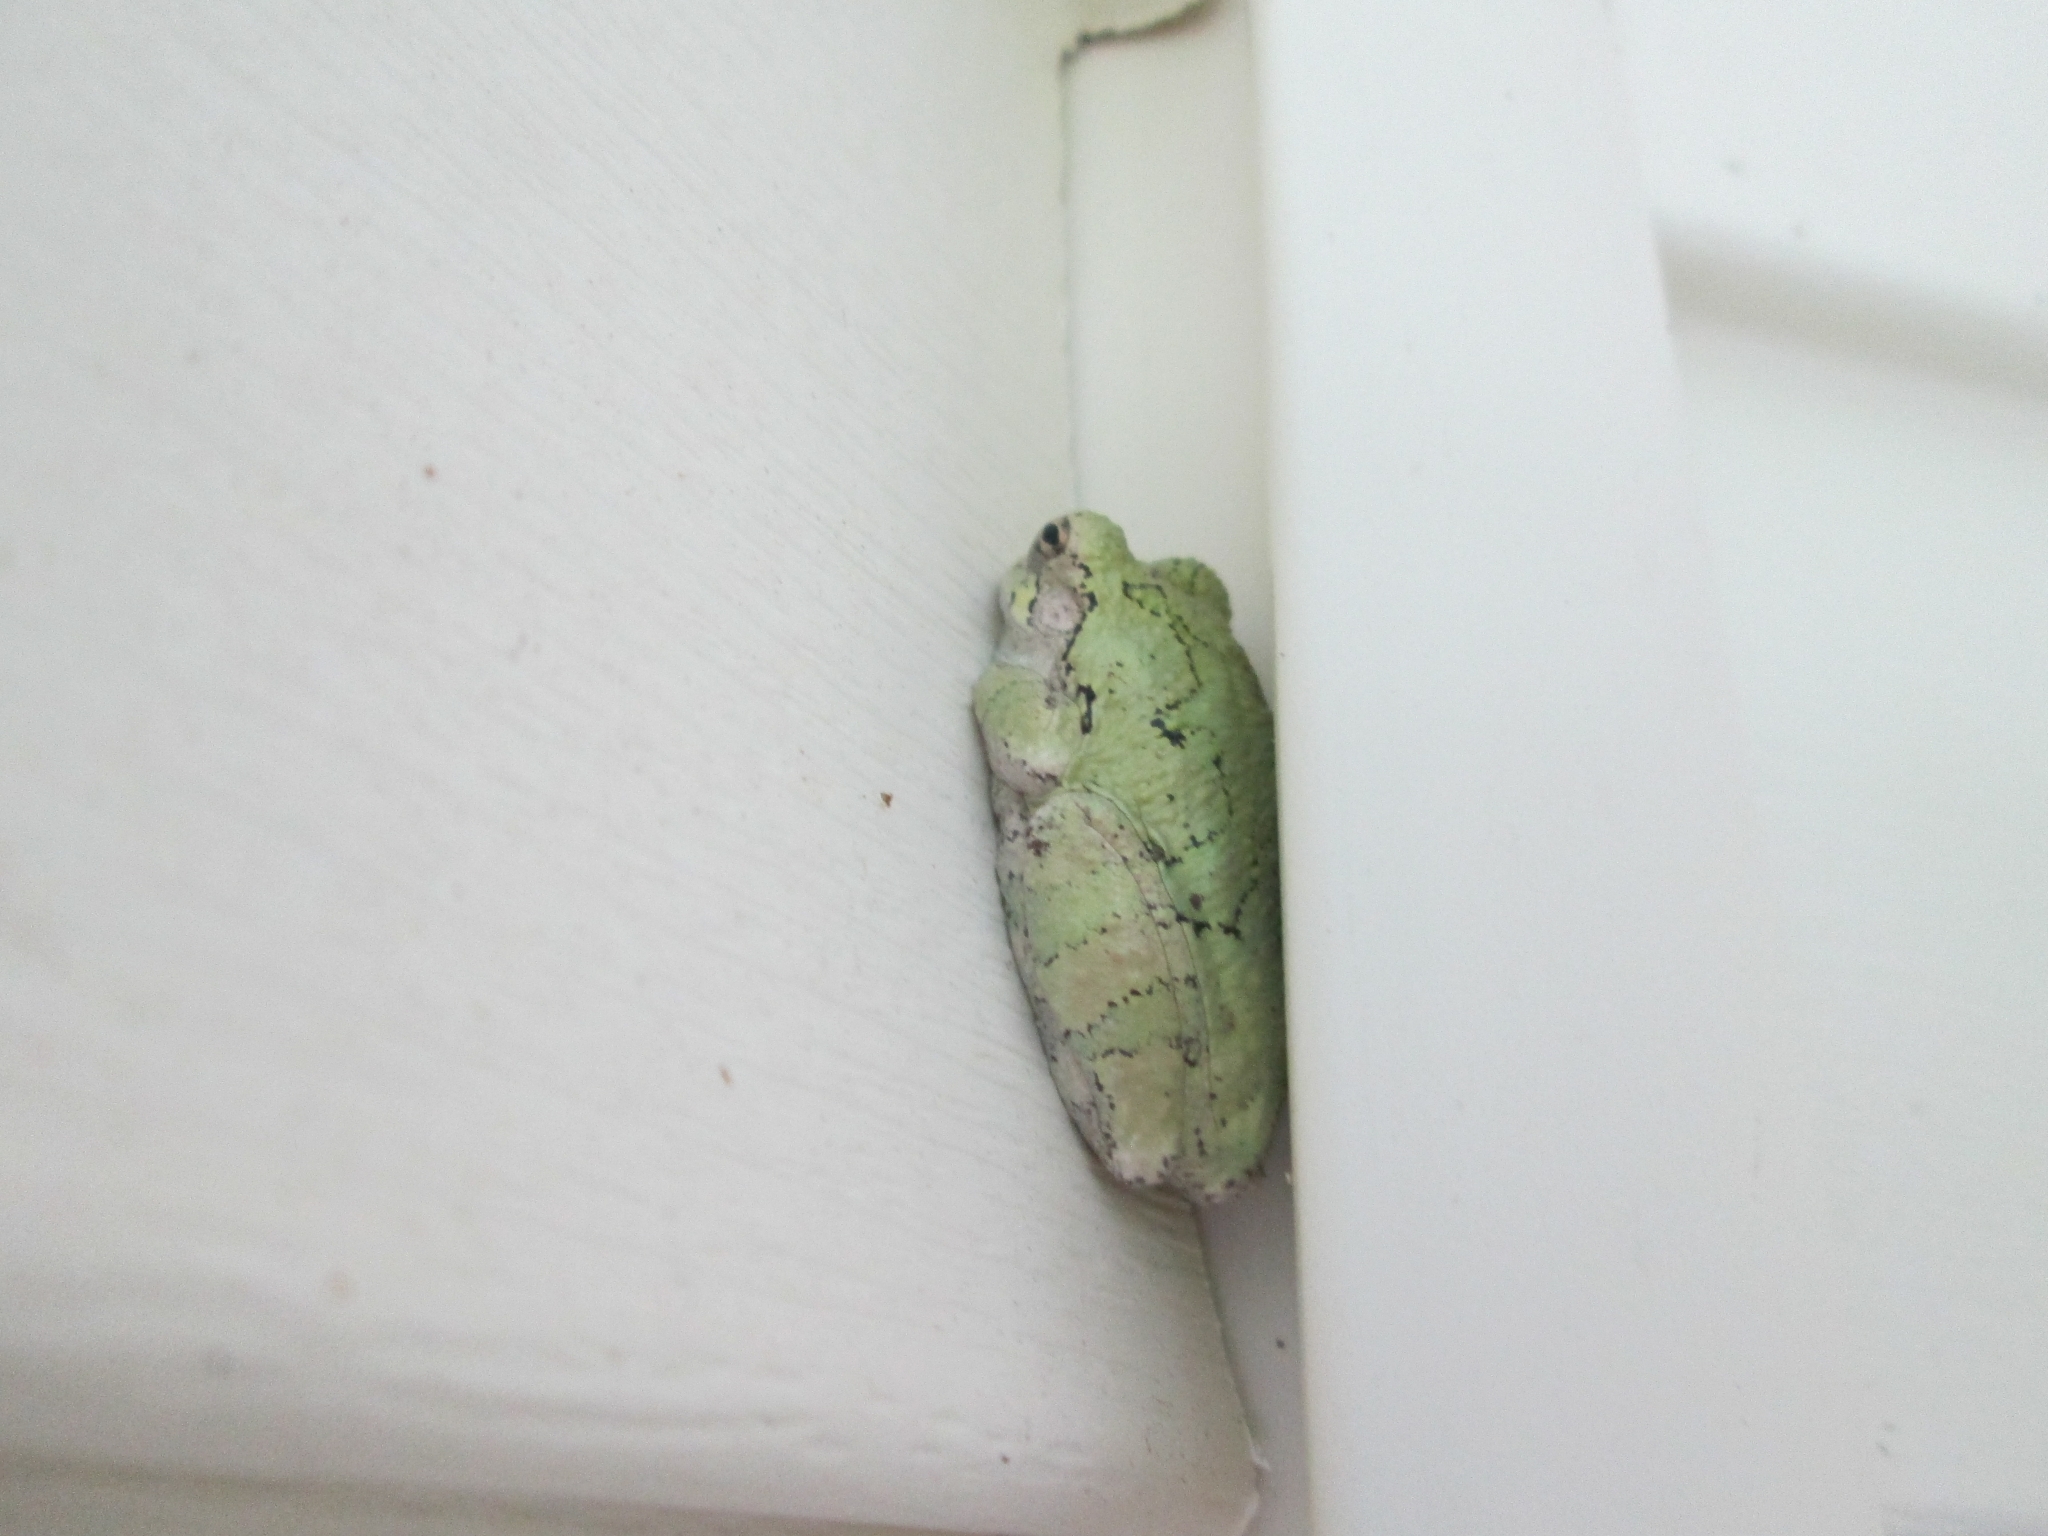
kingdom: Animalia
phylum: Chordata
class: Amphibia
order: Anura
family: Hylidae
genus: Dryophytes
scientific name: Dryophytes chrysoscelis
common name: Cope's gray treefrog
